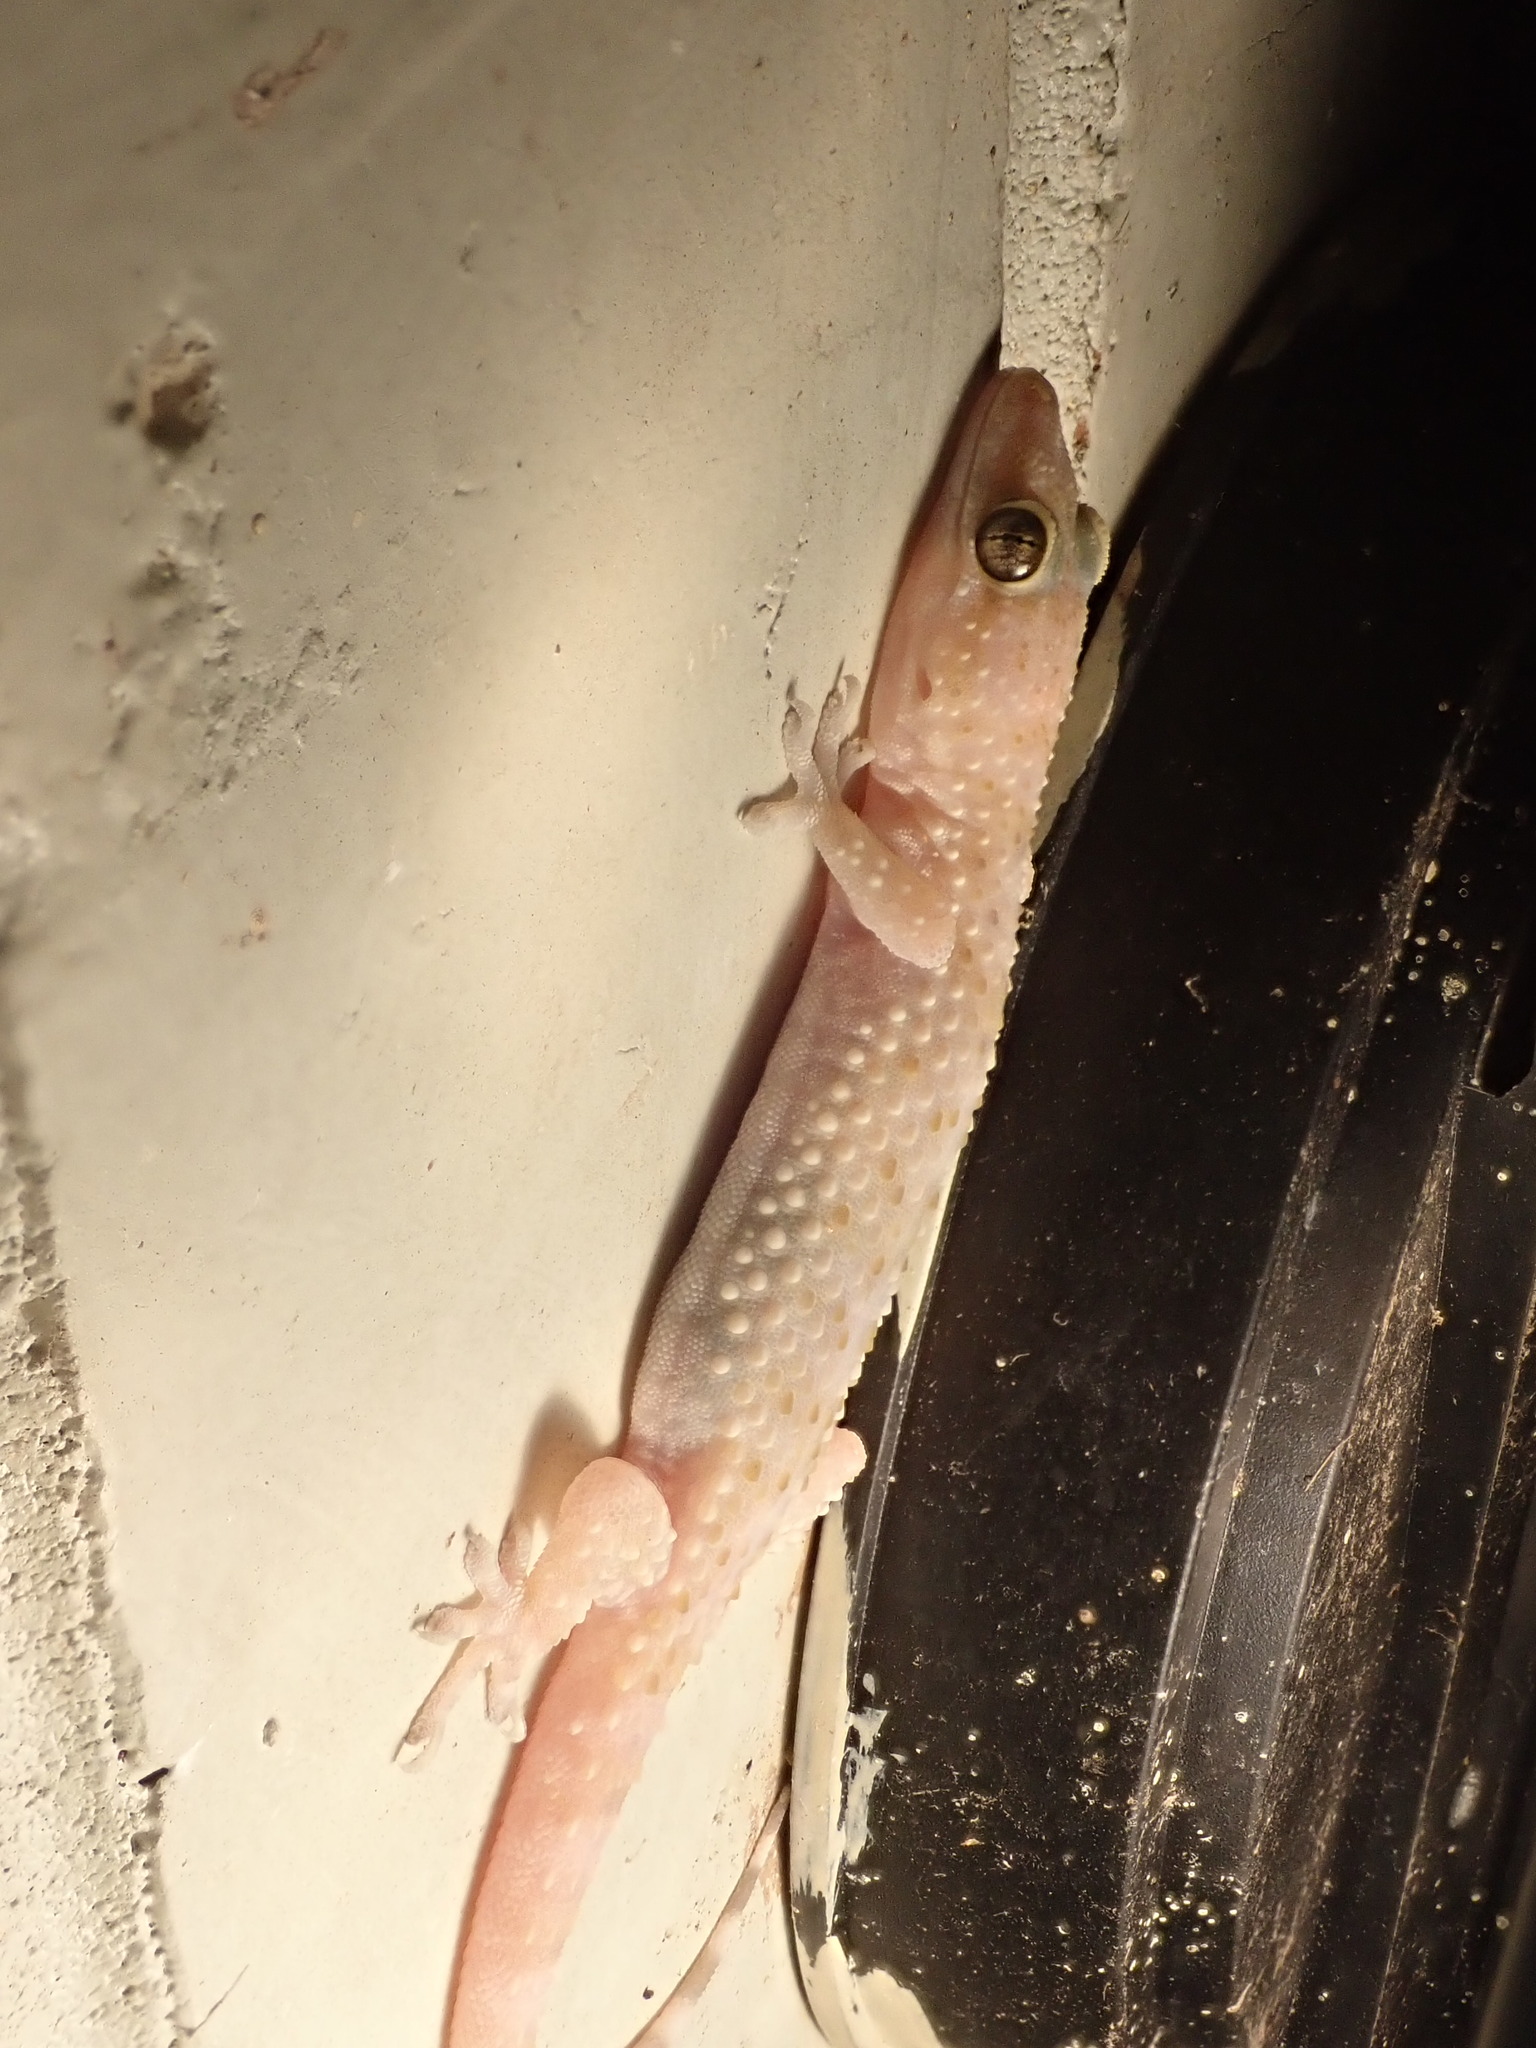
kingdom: Animalia
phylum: Chordata
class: Squamata
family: Gekkonidae
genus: Hemidactylus
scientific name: Hemidactylus turcicus
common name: Turkish gecko
